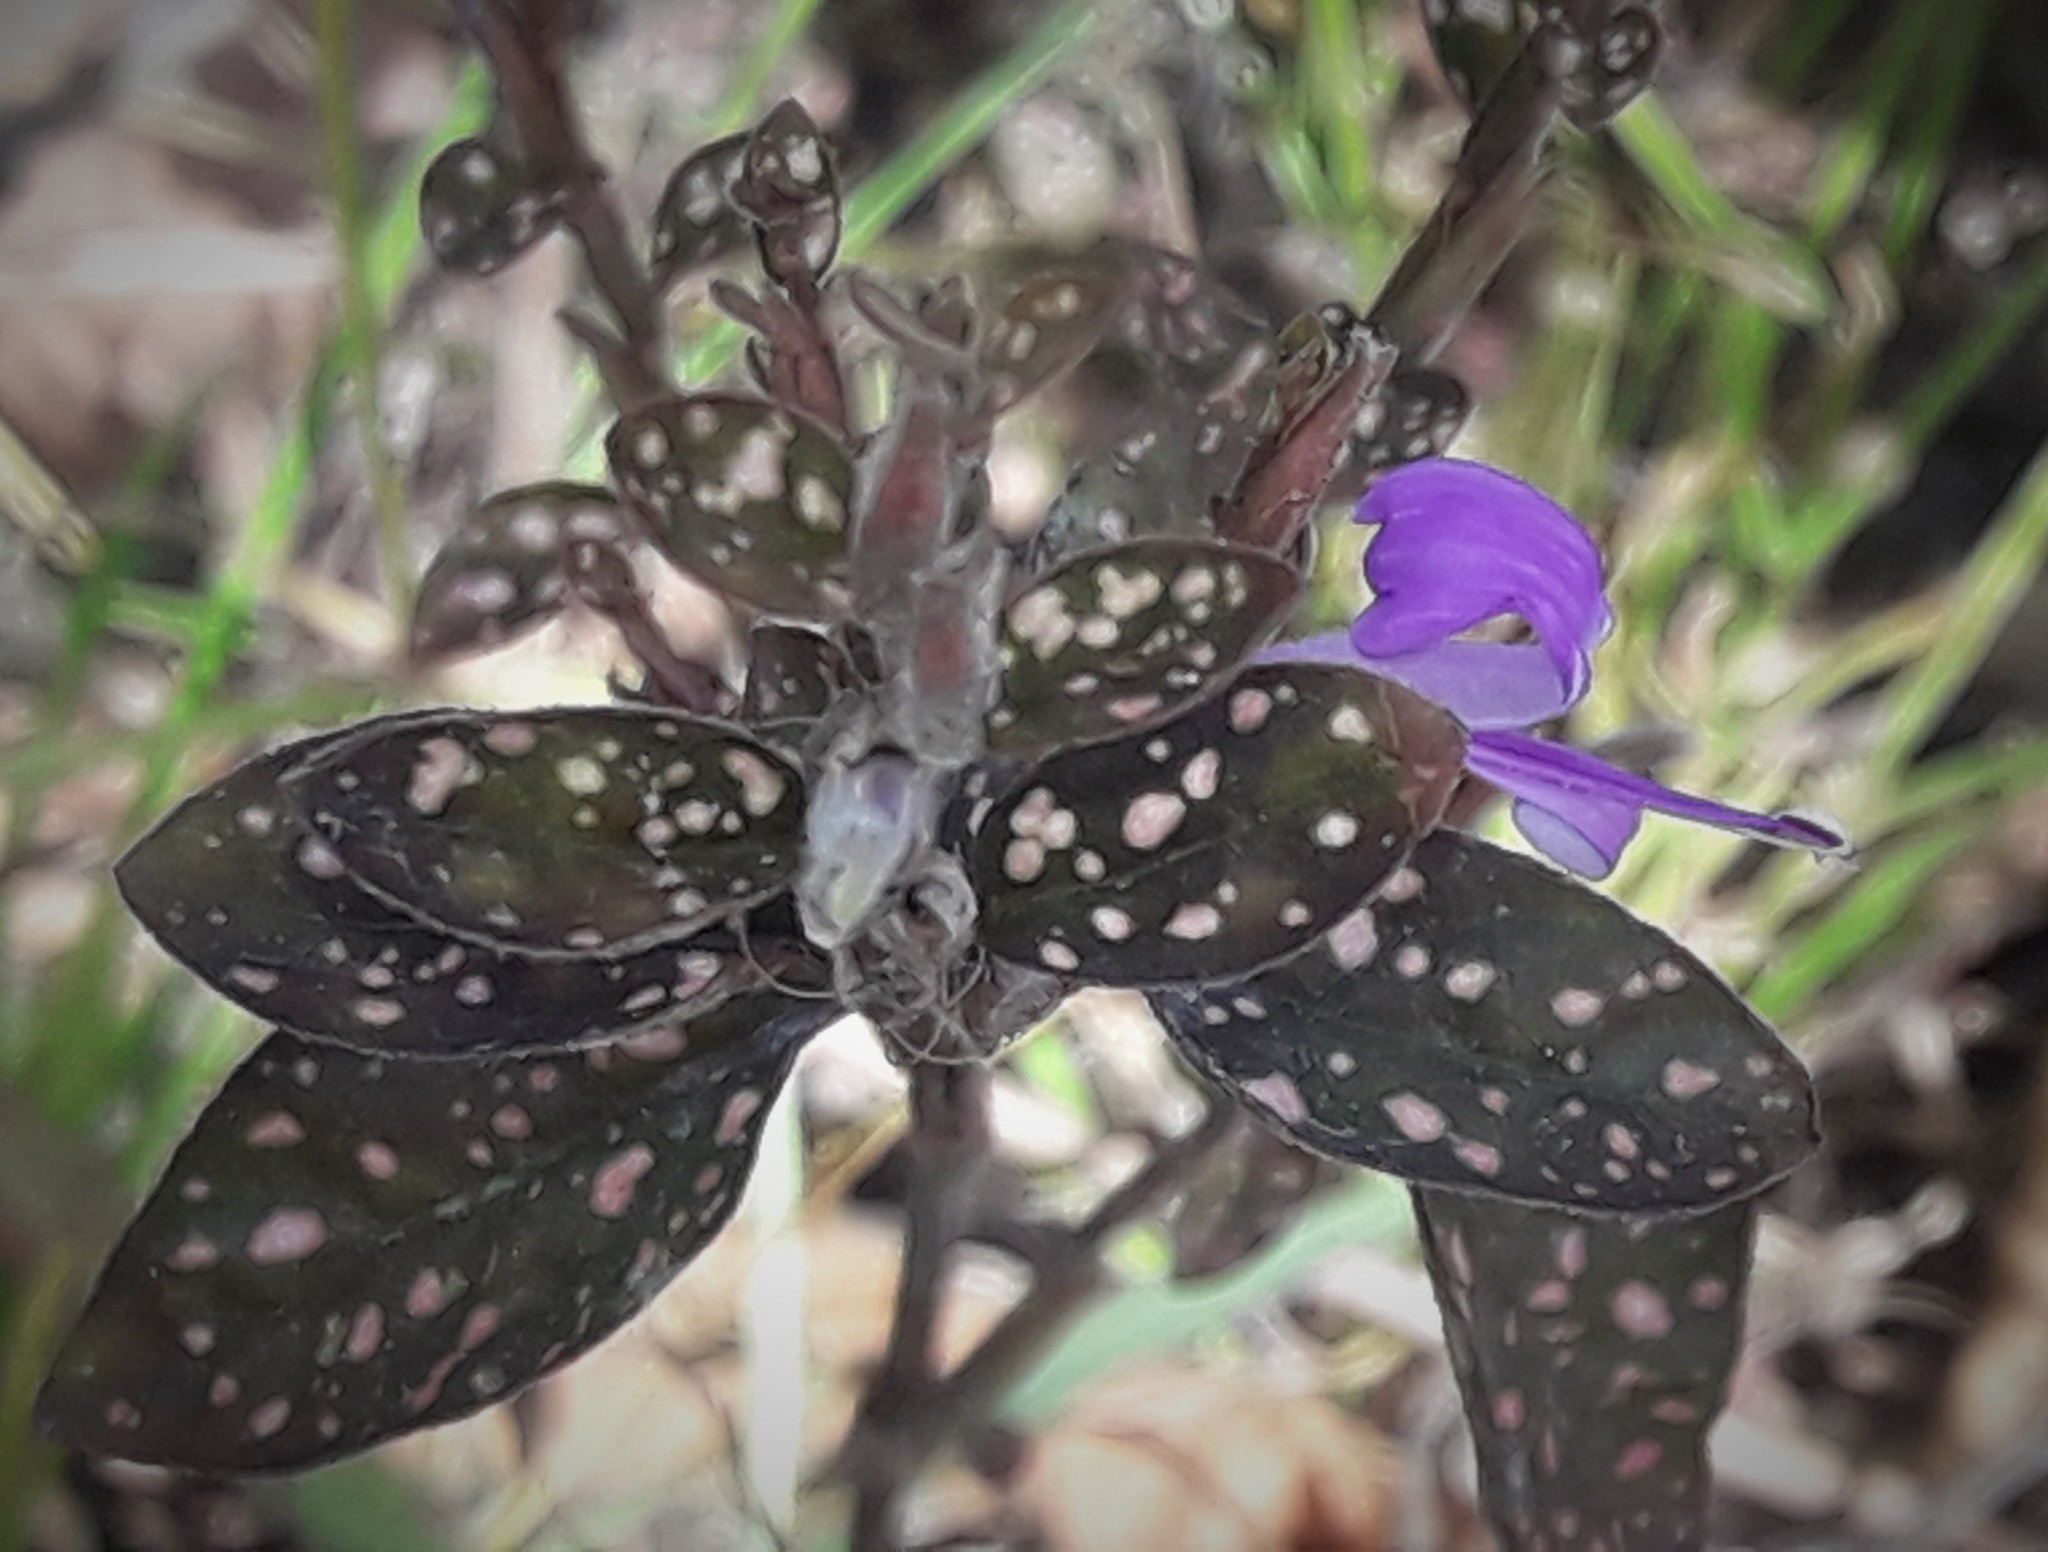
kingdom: Plantae
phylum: Tracheophyta
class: Magnoliopsida
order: Lamiales
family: Acanthaceae
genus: Hypoestes
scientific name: Hypoestes phyllostachya
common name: Polkadot-plant
